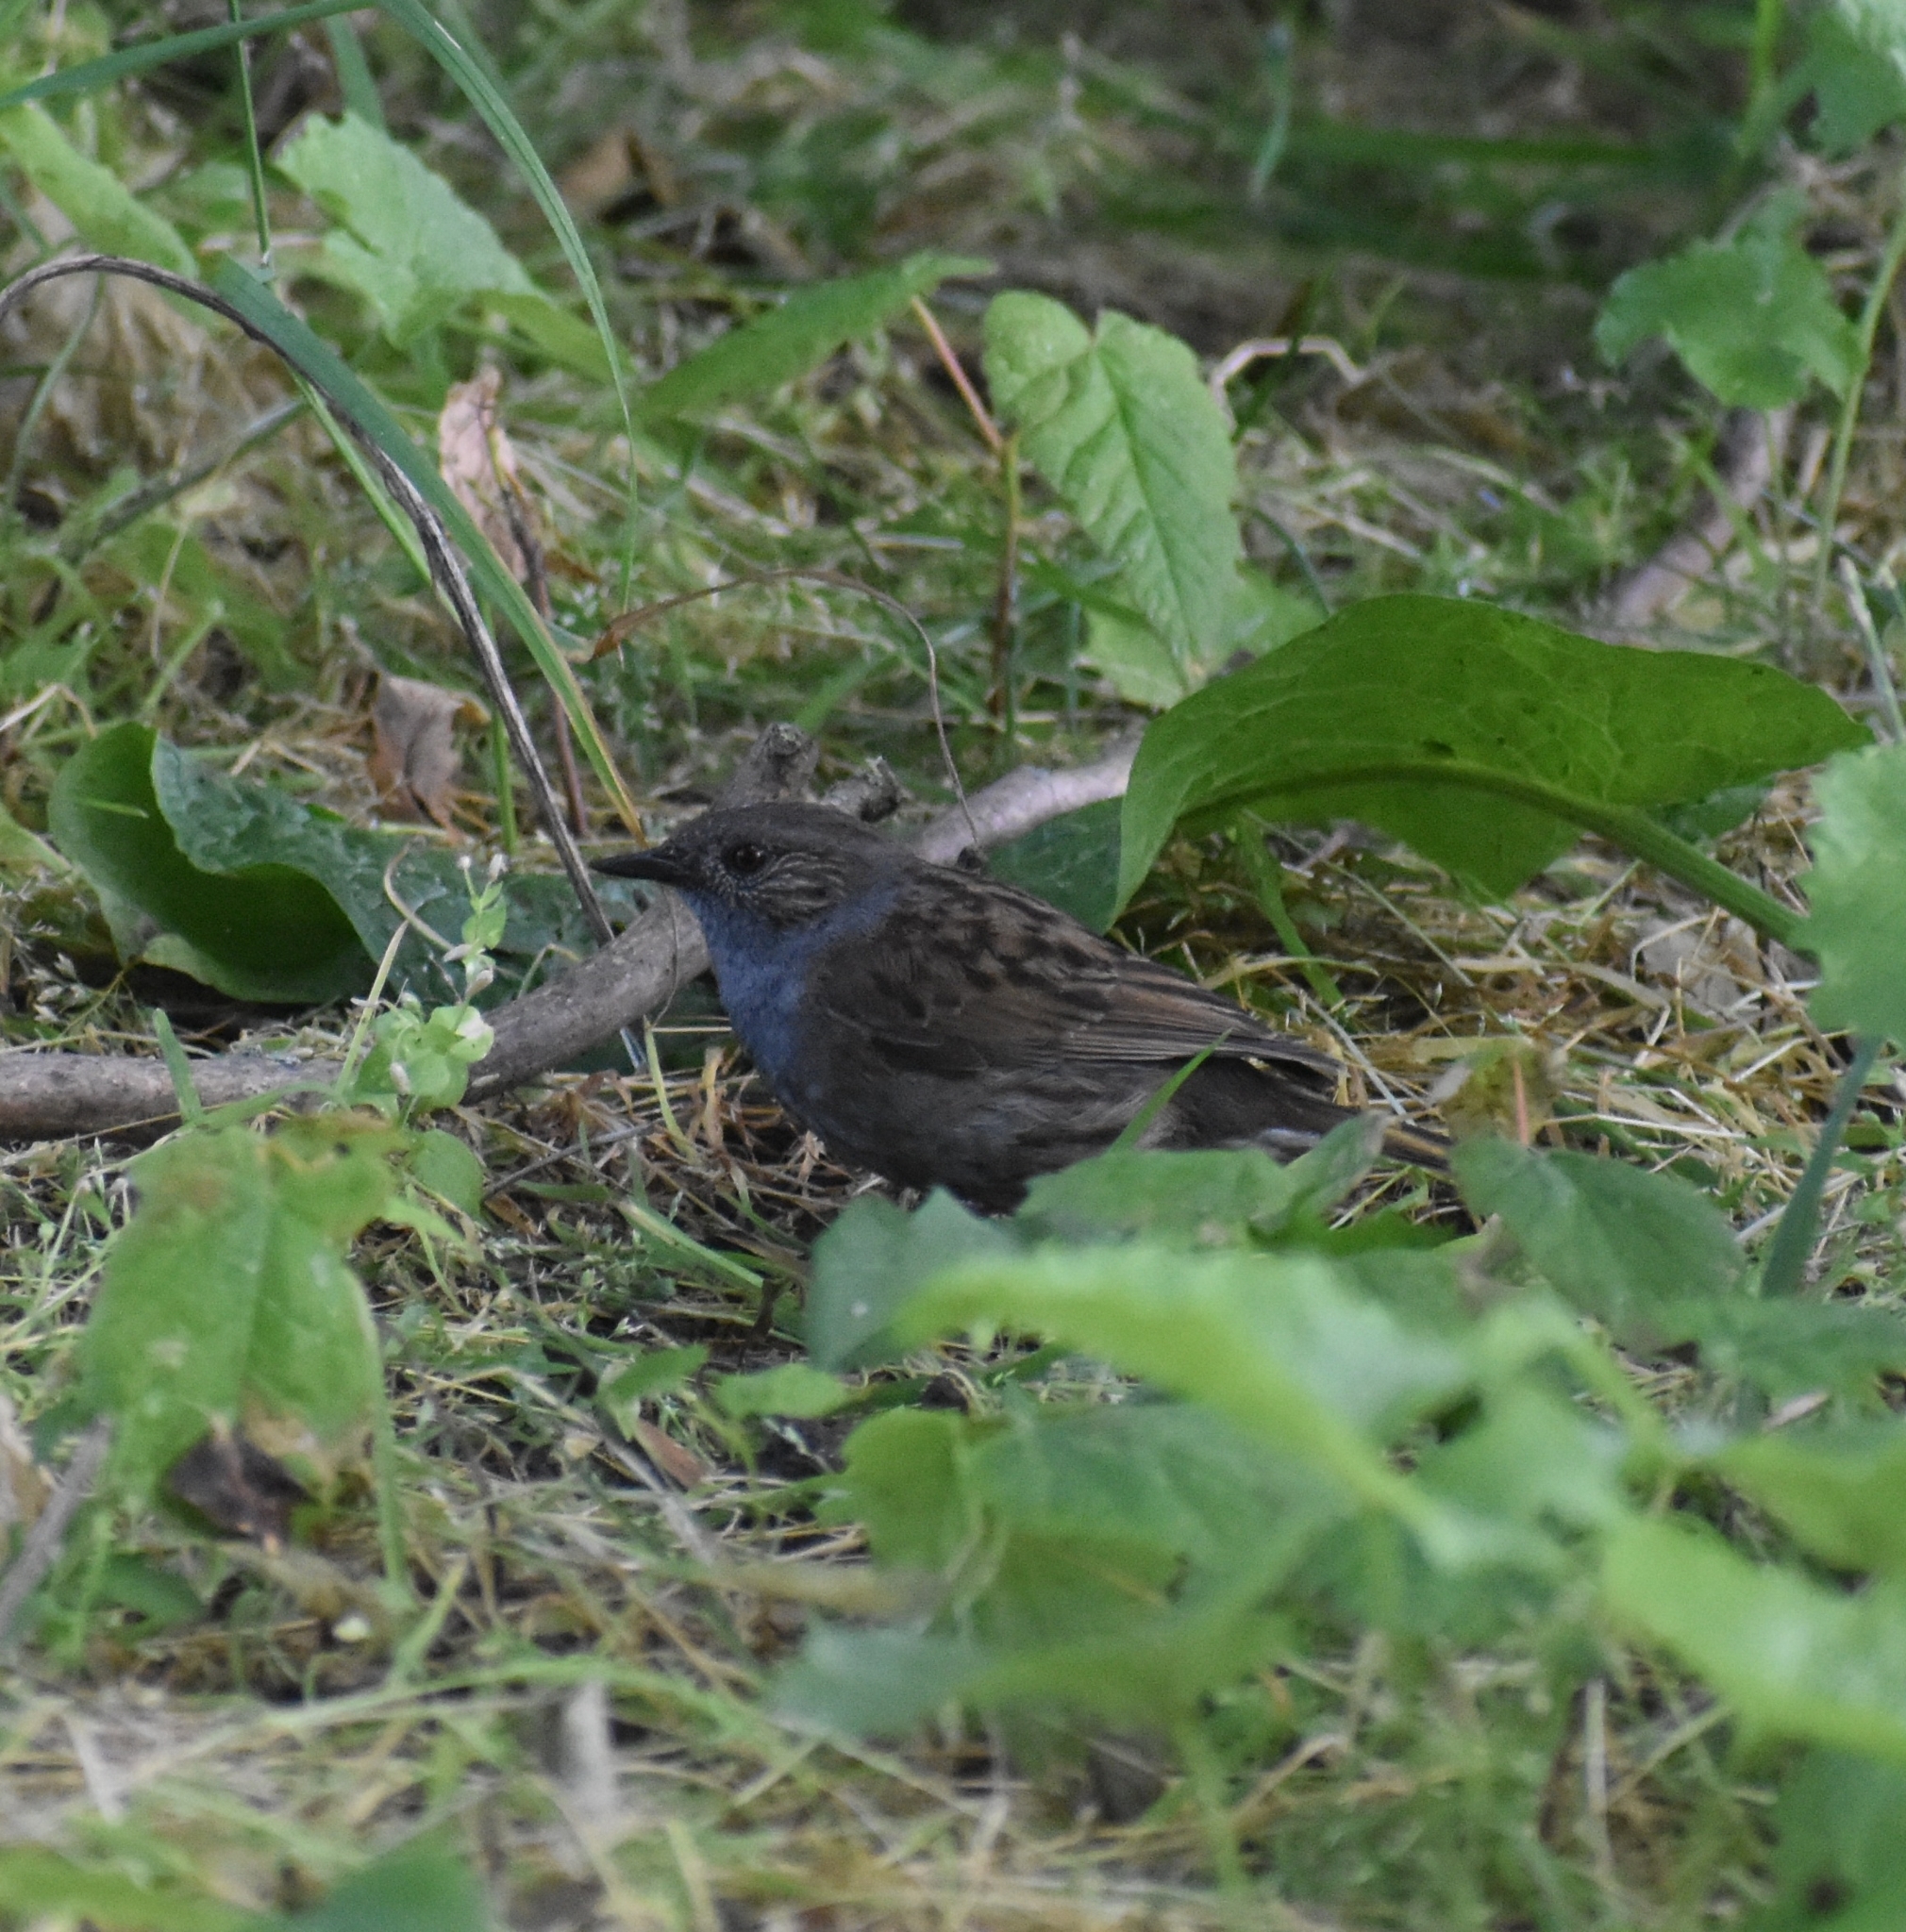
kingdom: Animalia
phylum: Chordata
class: Aves
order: Passeriformes
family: Prunellidae
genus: Prunella
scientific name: Prunella modularis
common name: Dunnock
